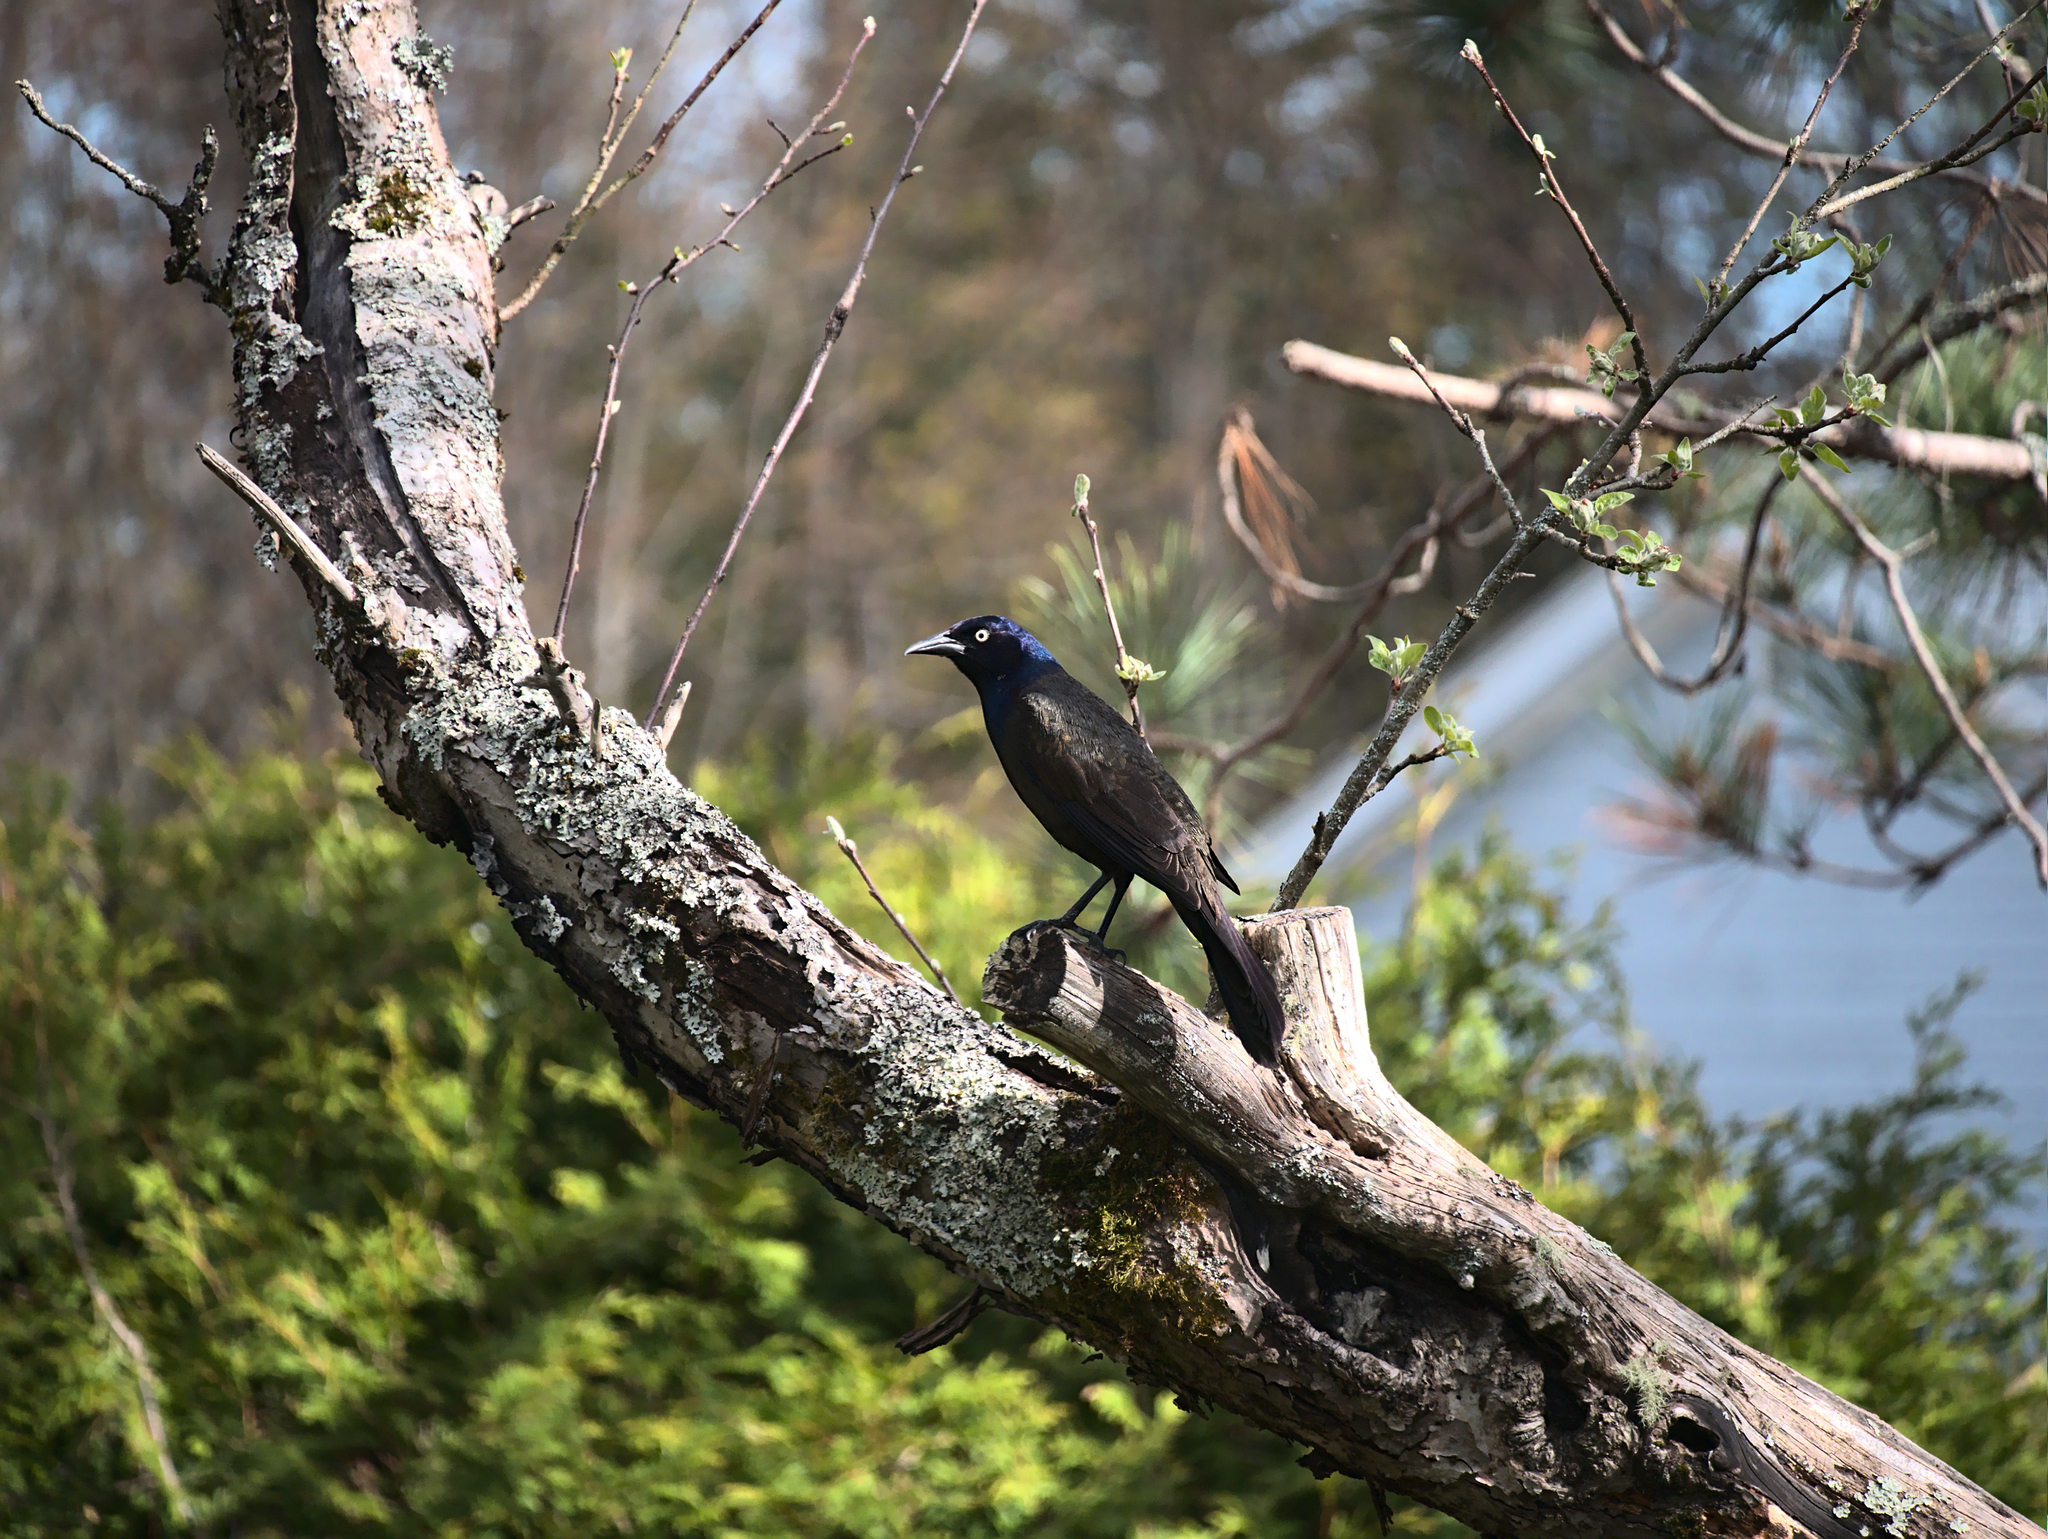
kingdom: Animalia
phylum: Chordata
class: Aves
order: Passeriformes
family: Icteridae
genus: Quiscalus
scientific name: Quiscalus quiscula
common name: Common grackle
